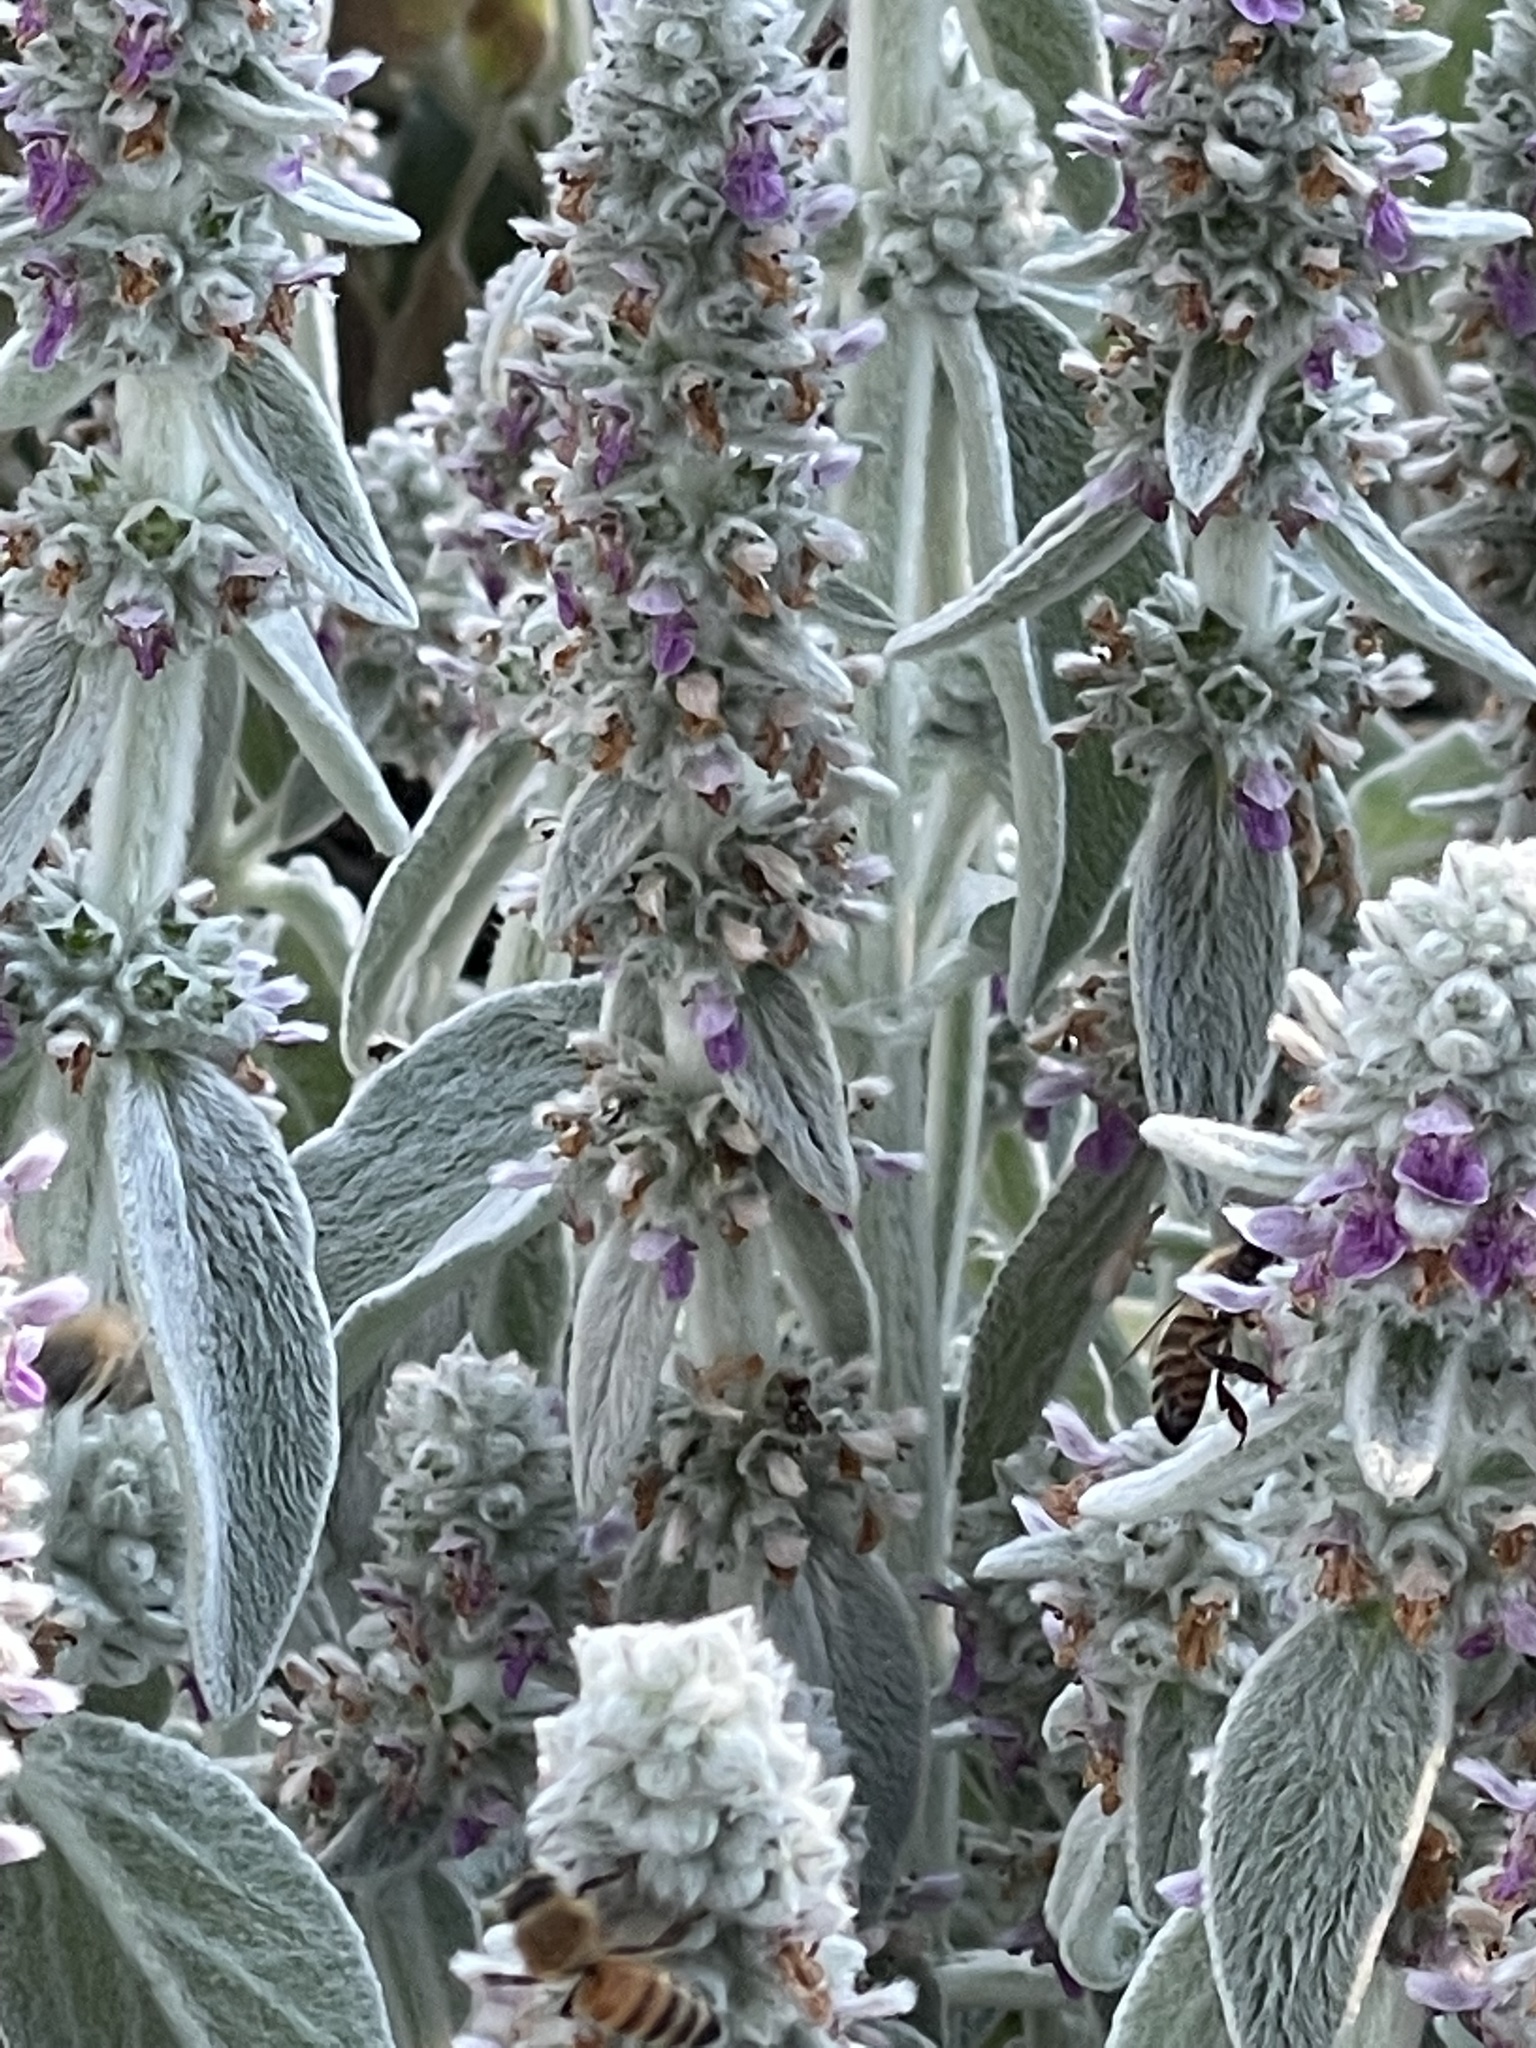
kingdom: Plantae
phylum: Tracheophyta
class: Magnoliopsida
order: Lamiales
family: Lamiaceae
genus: Stachys
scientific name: Stachys byzantina
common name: Lamb's-ear
